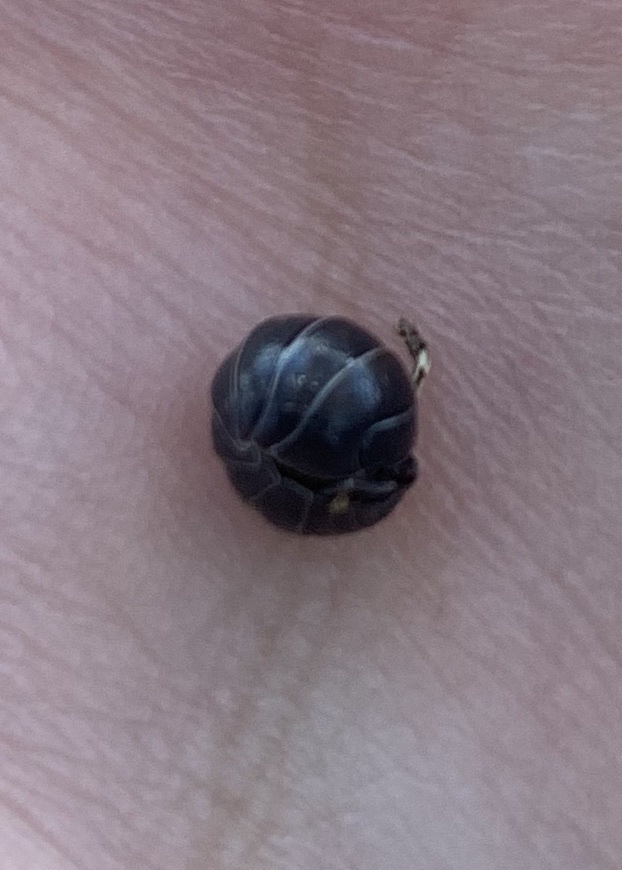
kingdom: Animalia
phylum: Arthropoda
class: Malacostraca
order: Isopoda
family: Armadillidiidae
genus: Armadillidium
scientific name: Armadillidium vulgare
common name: Common pill woodlouse
